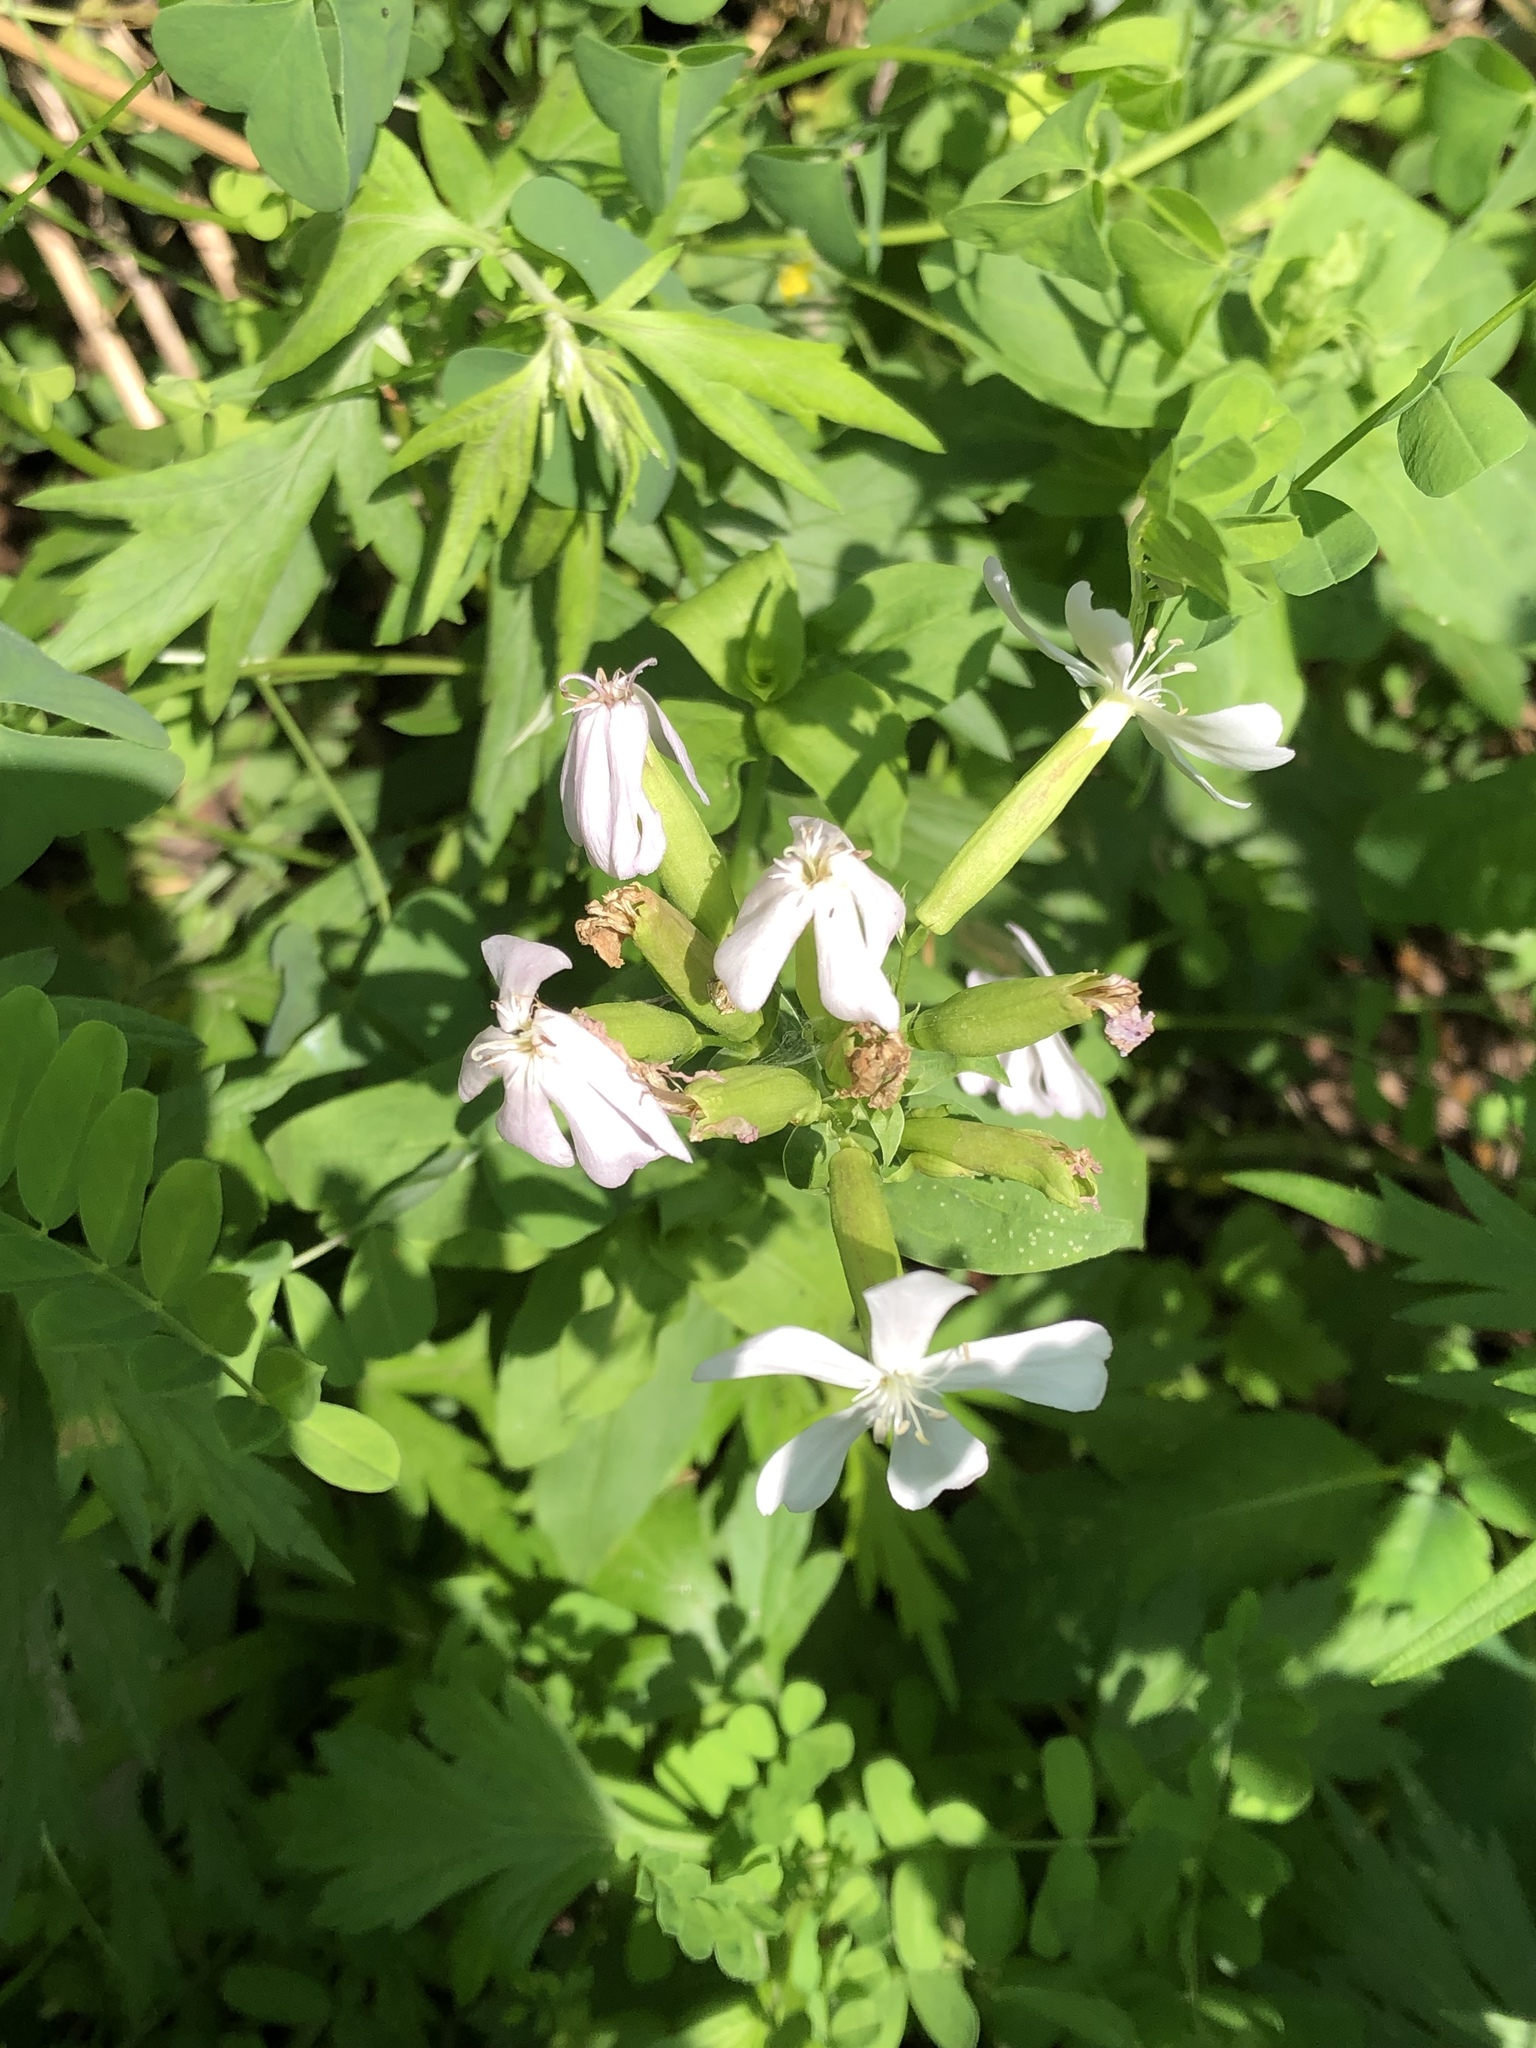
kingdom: Plantae
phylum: Tracheophyta
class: Magnoliopsida
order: Caryophyllales
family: Caryophyllaceae
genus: Saponaria
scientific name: Saponaria officinalis
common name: Soapwort
